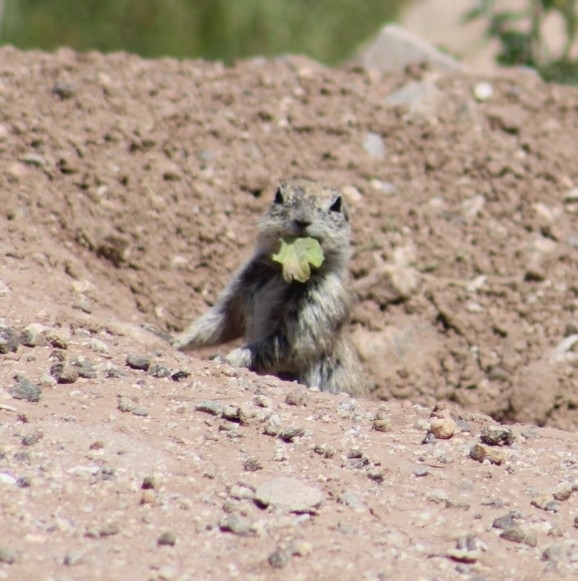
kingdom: Animalia
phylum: Chordata
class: Mammalia
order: Rodentia
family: Sciuridae
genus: Xerospermophilus
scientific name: Xerospermophilus tereticaudus
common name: Round-tailed ground squirrel
